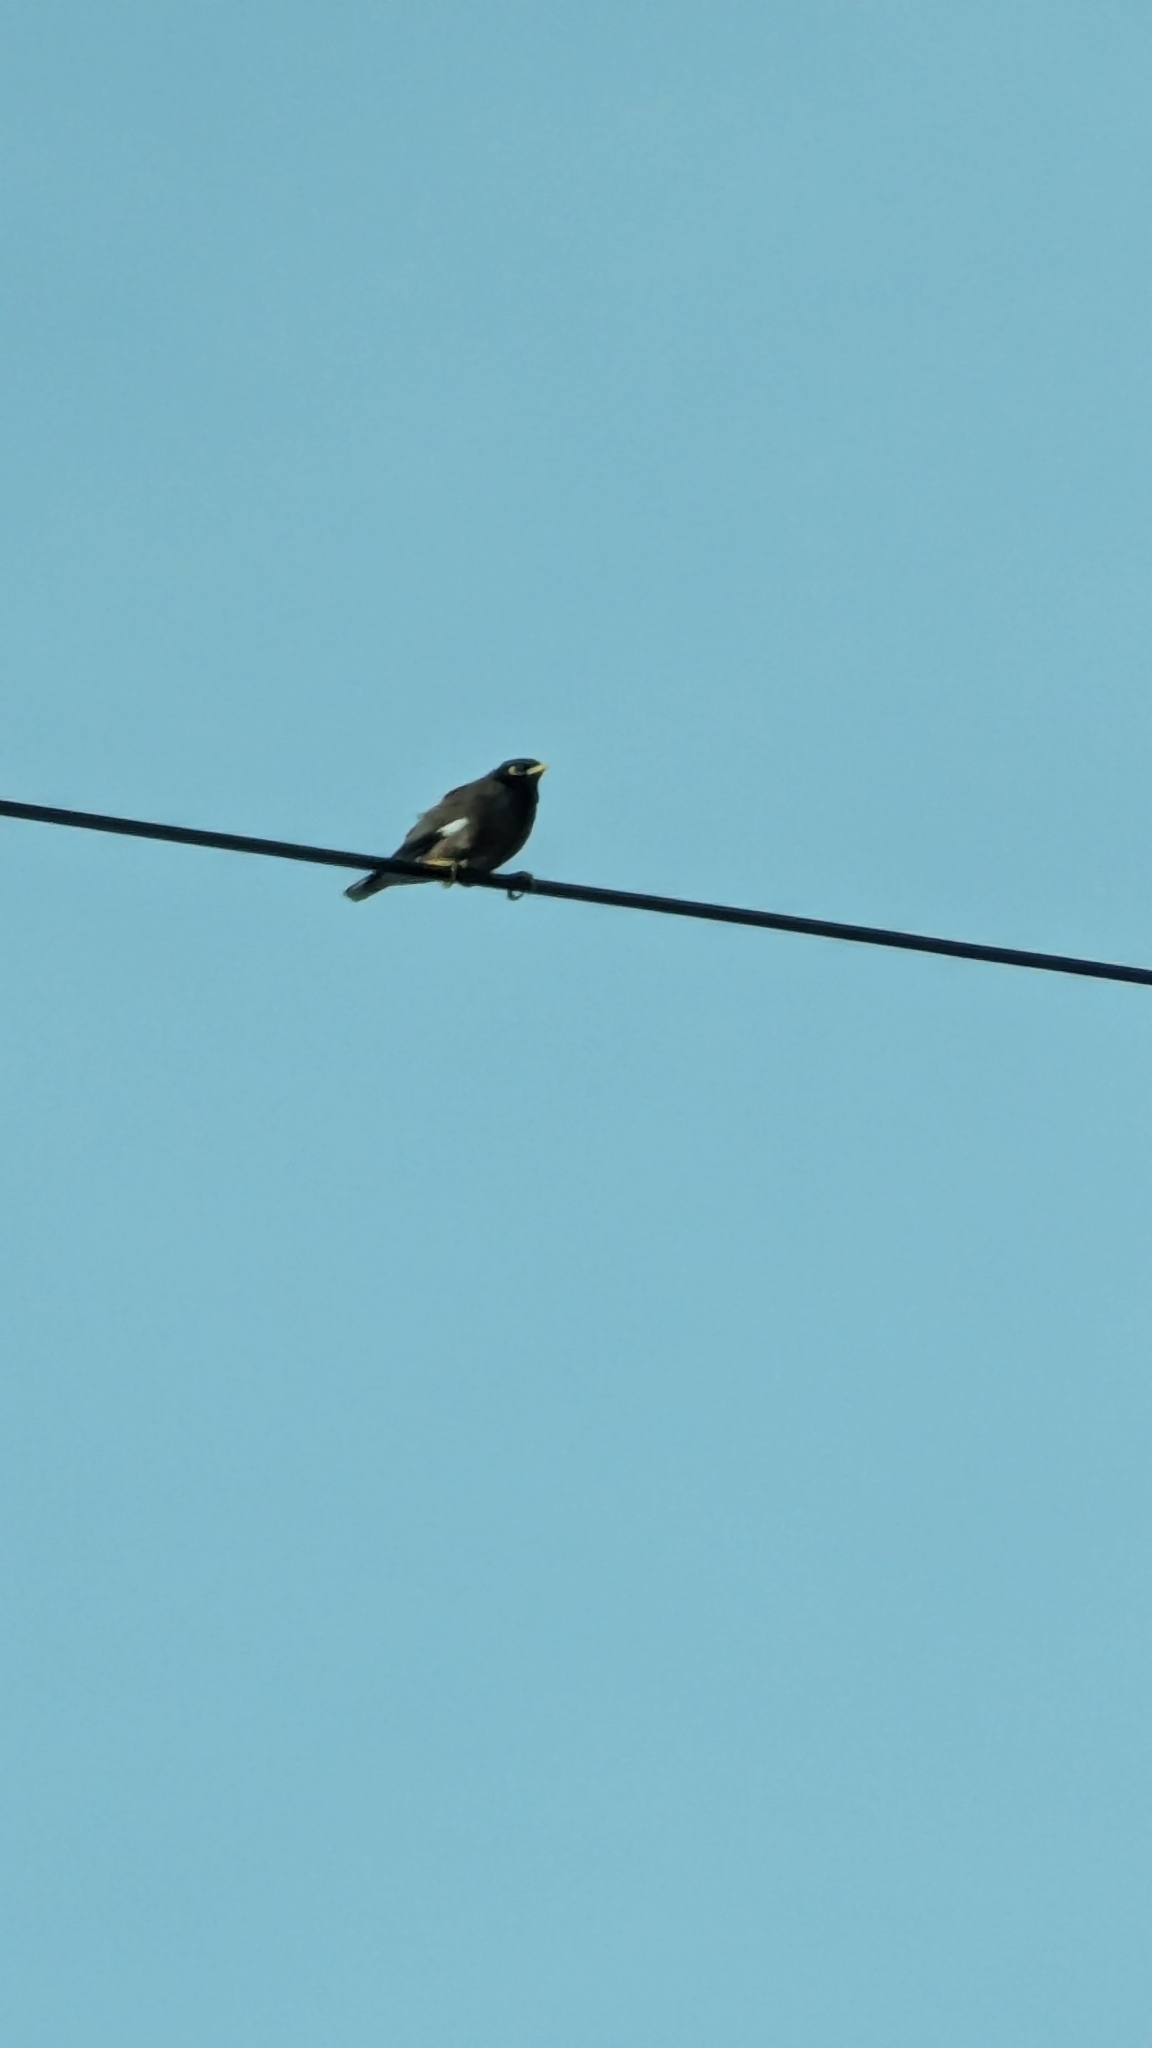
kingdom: Animalia
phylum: Chordata
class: Aves
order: Passeriformes
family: Sturnidae
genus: Acridotheres
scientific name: Acridotheres tristis
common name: Common myna
